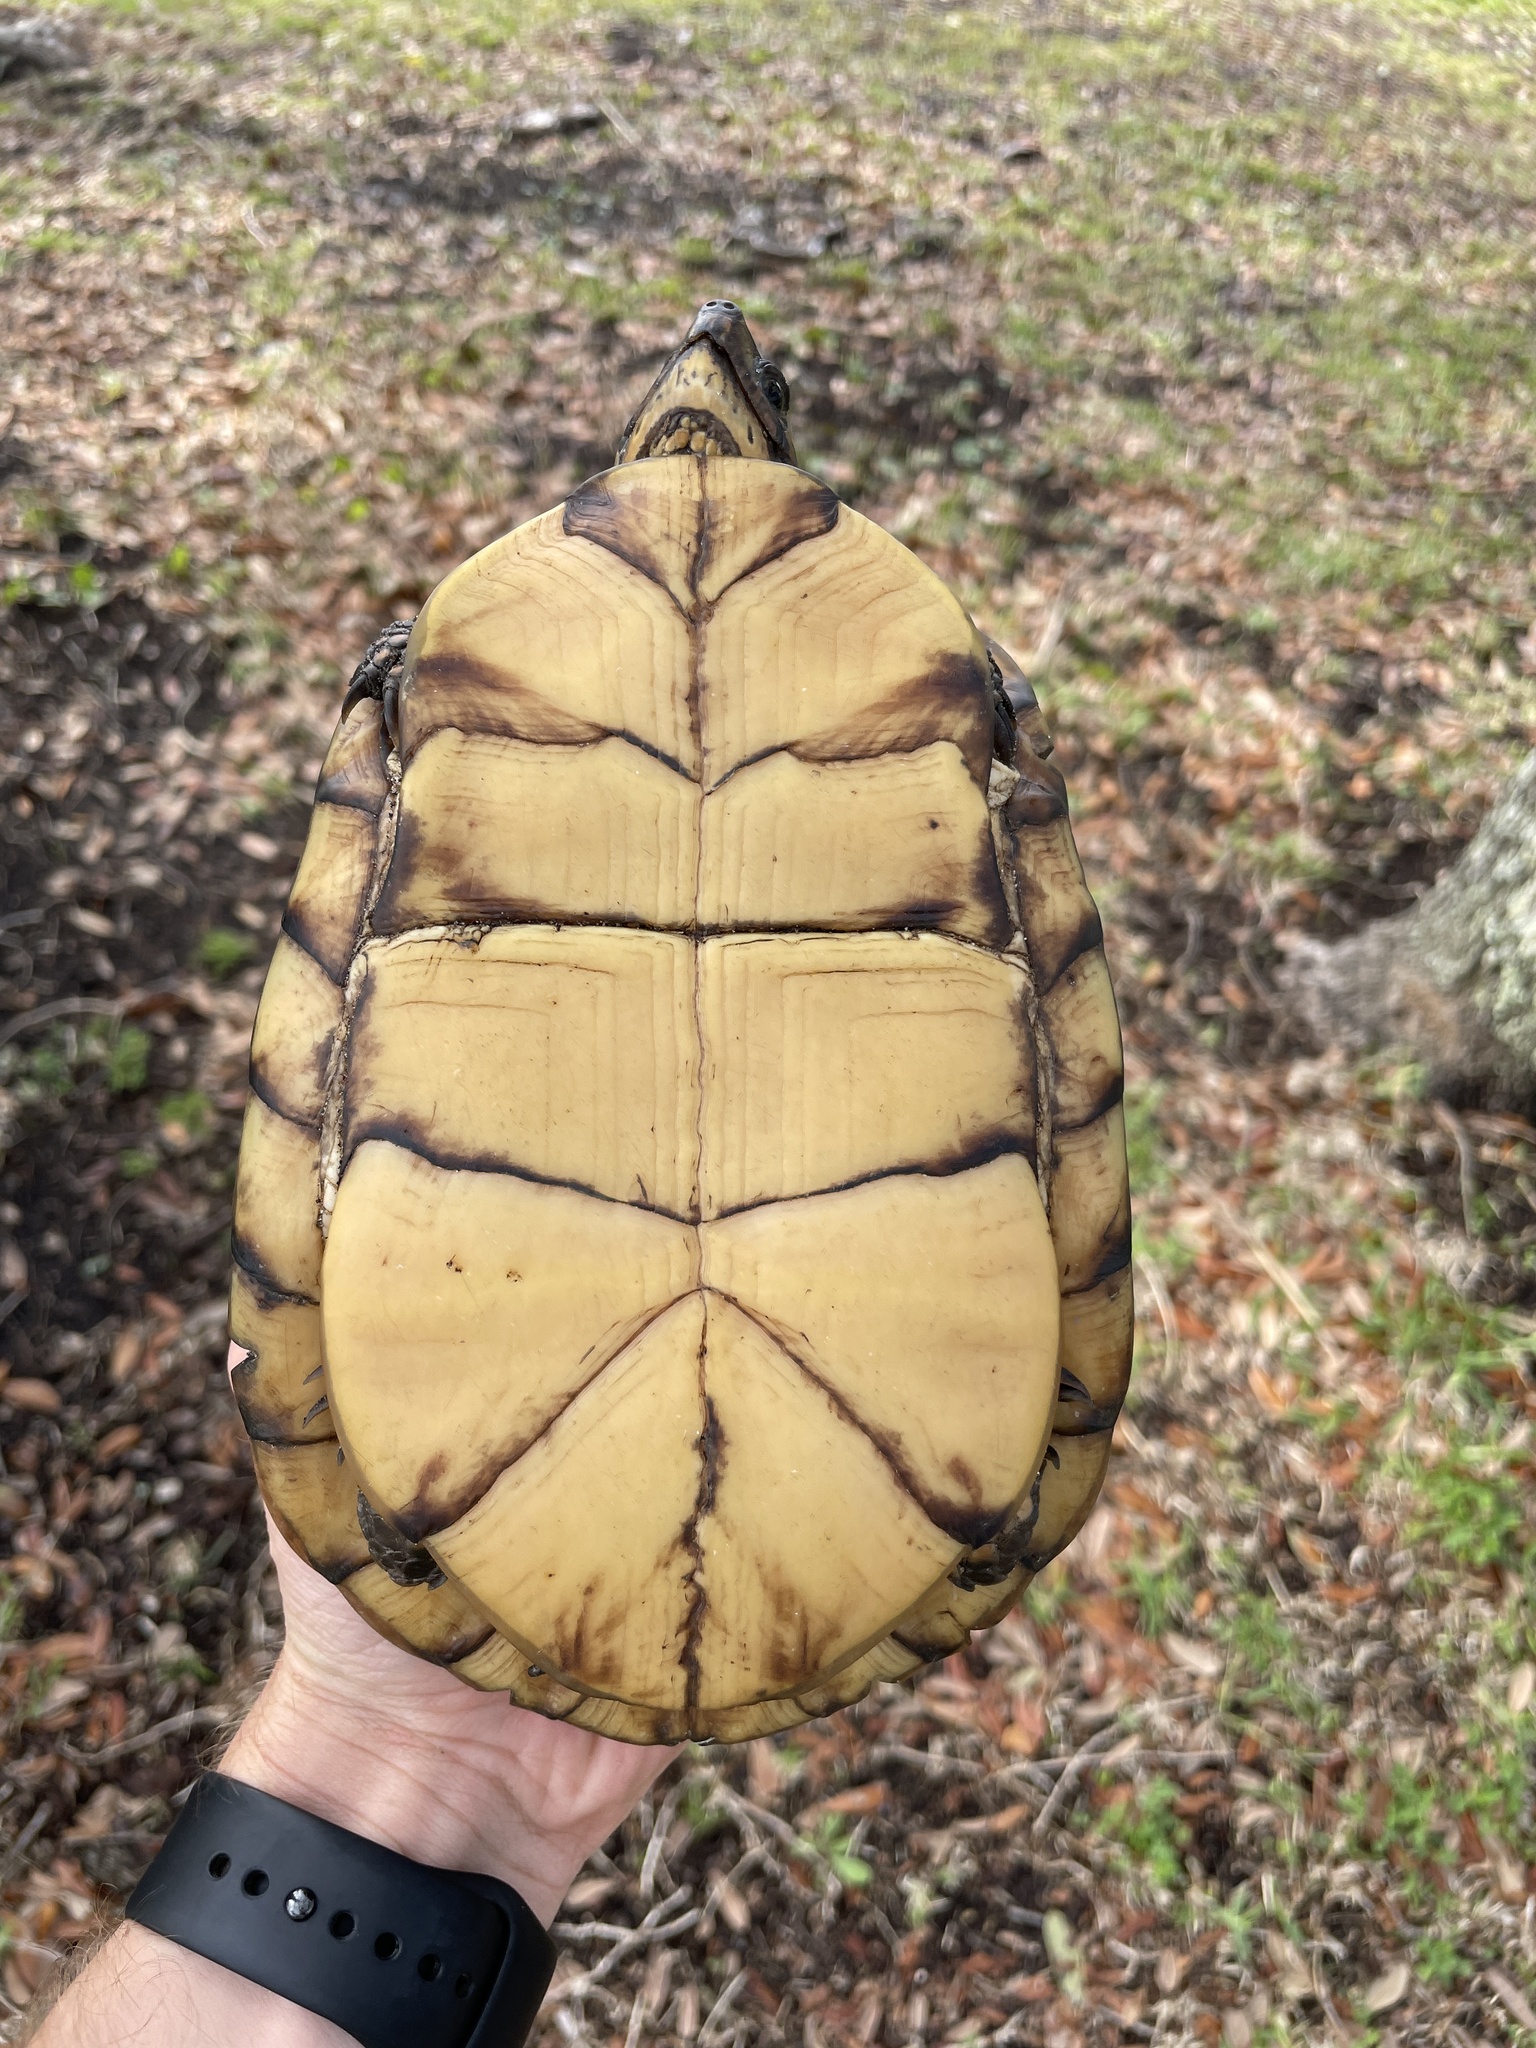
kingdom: Animalia
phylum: Chordata
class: Testudines
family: Emydidae
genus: Terrapene
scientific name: Terrapene carolina
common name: Common box turtle
